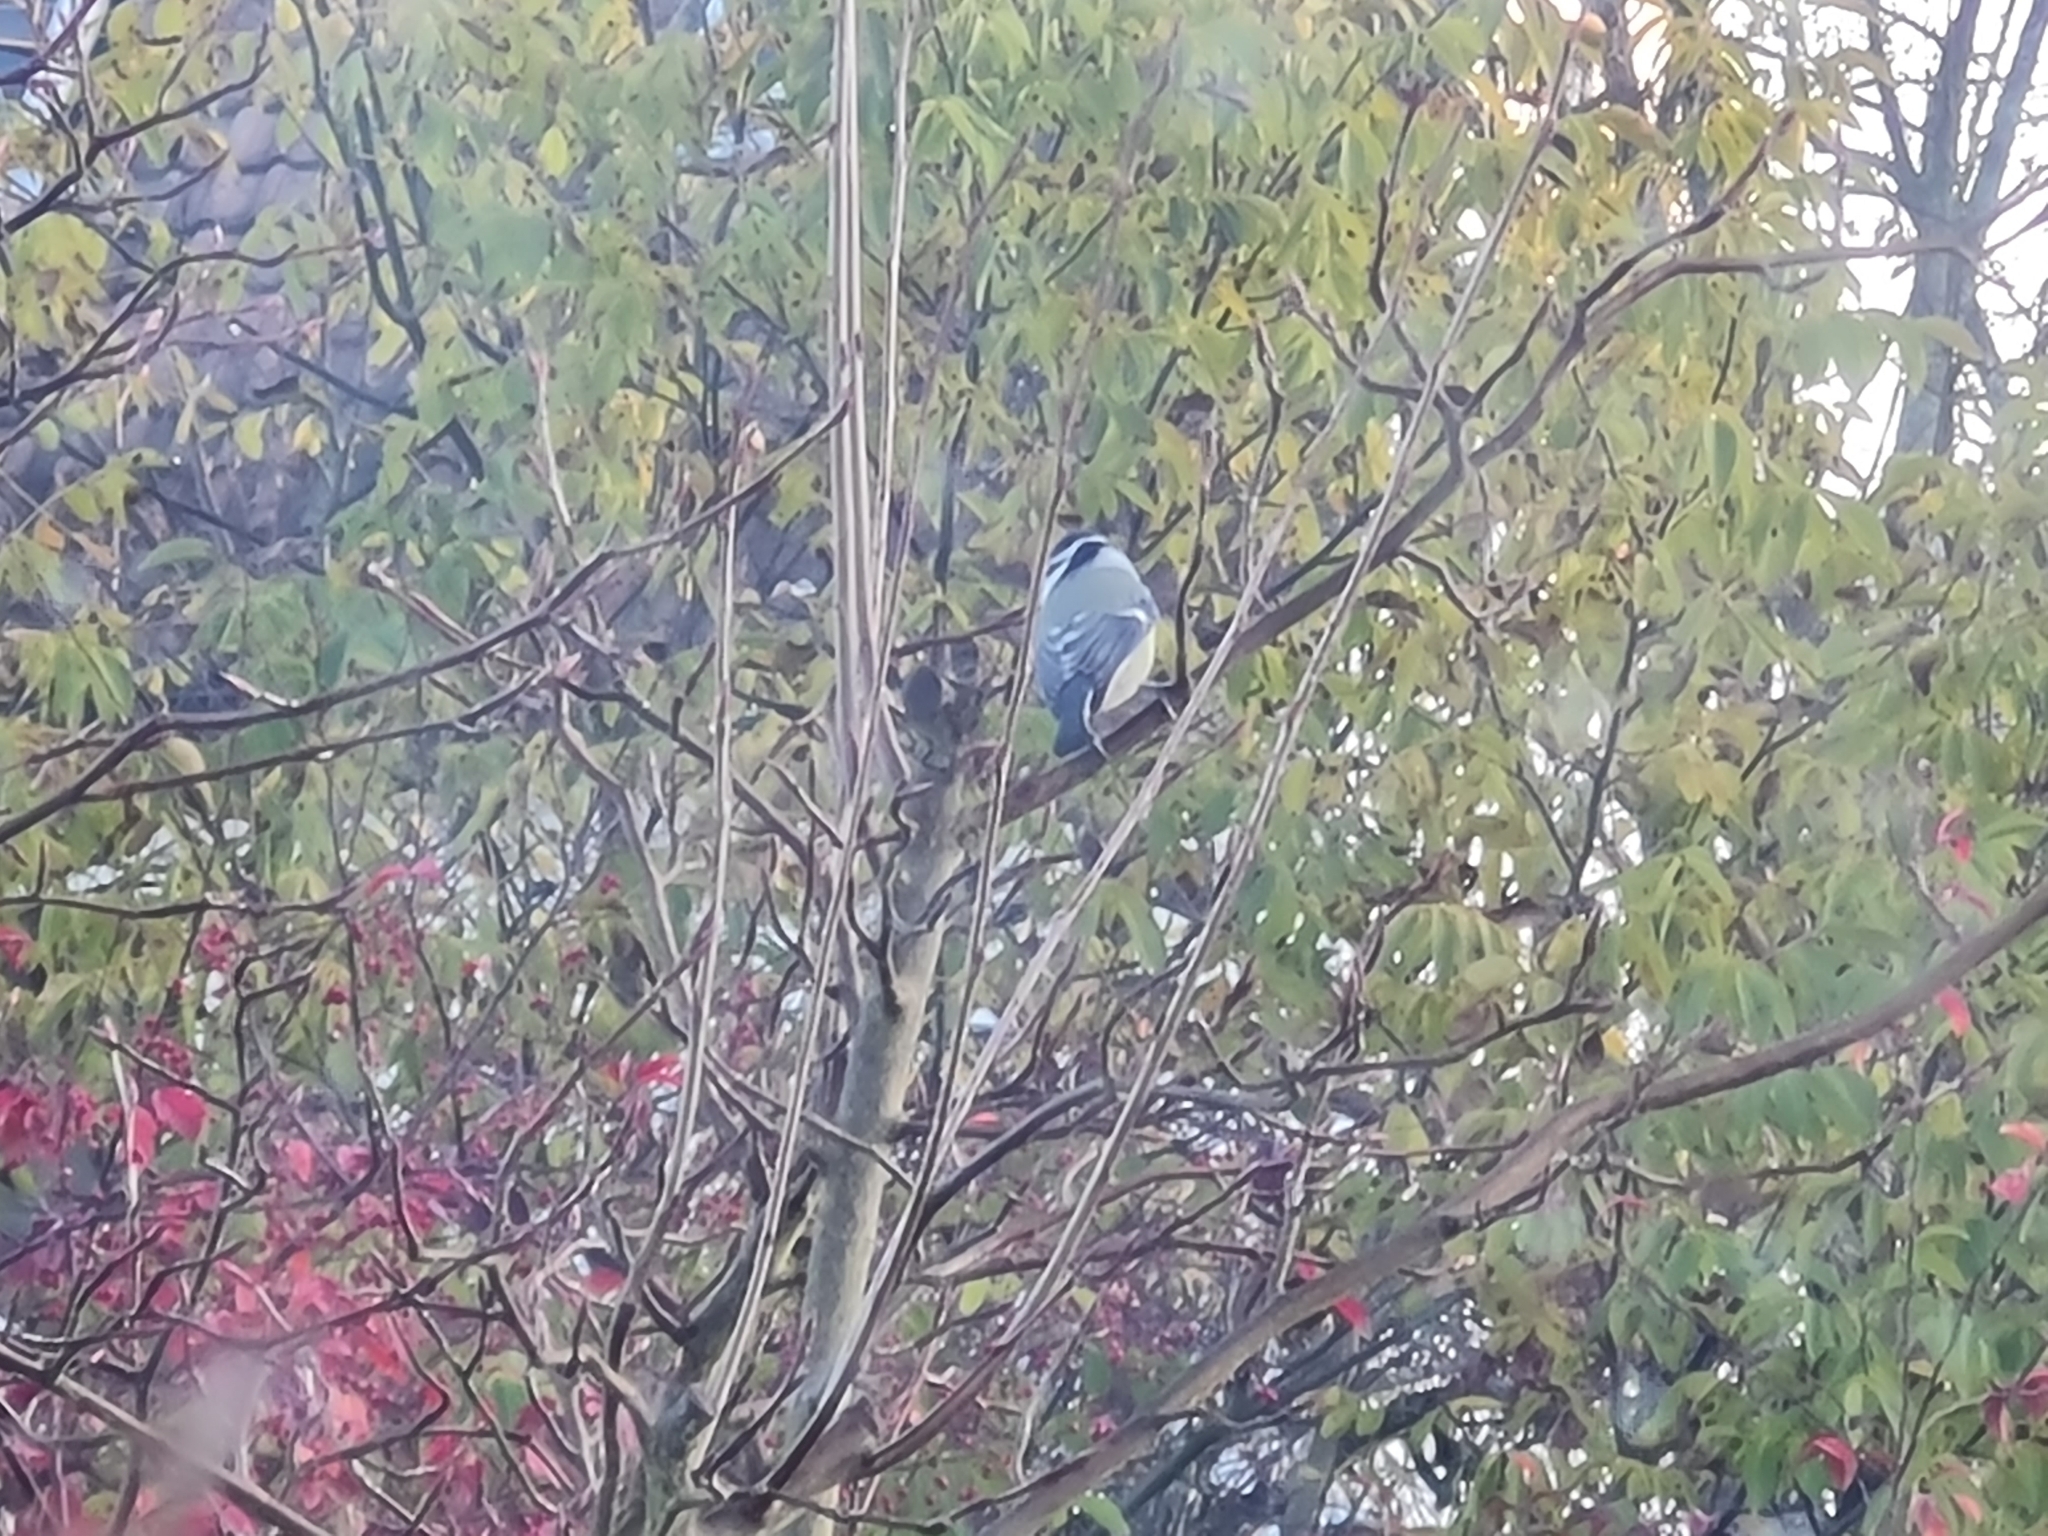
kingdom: Animalia
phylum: Chordata
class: Aves
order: Passeriformes
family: Paridae
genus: Cyanistes
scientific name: Cyanistes caeruleus
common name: Eurasian blue tit
